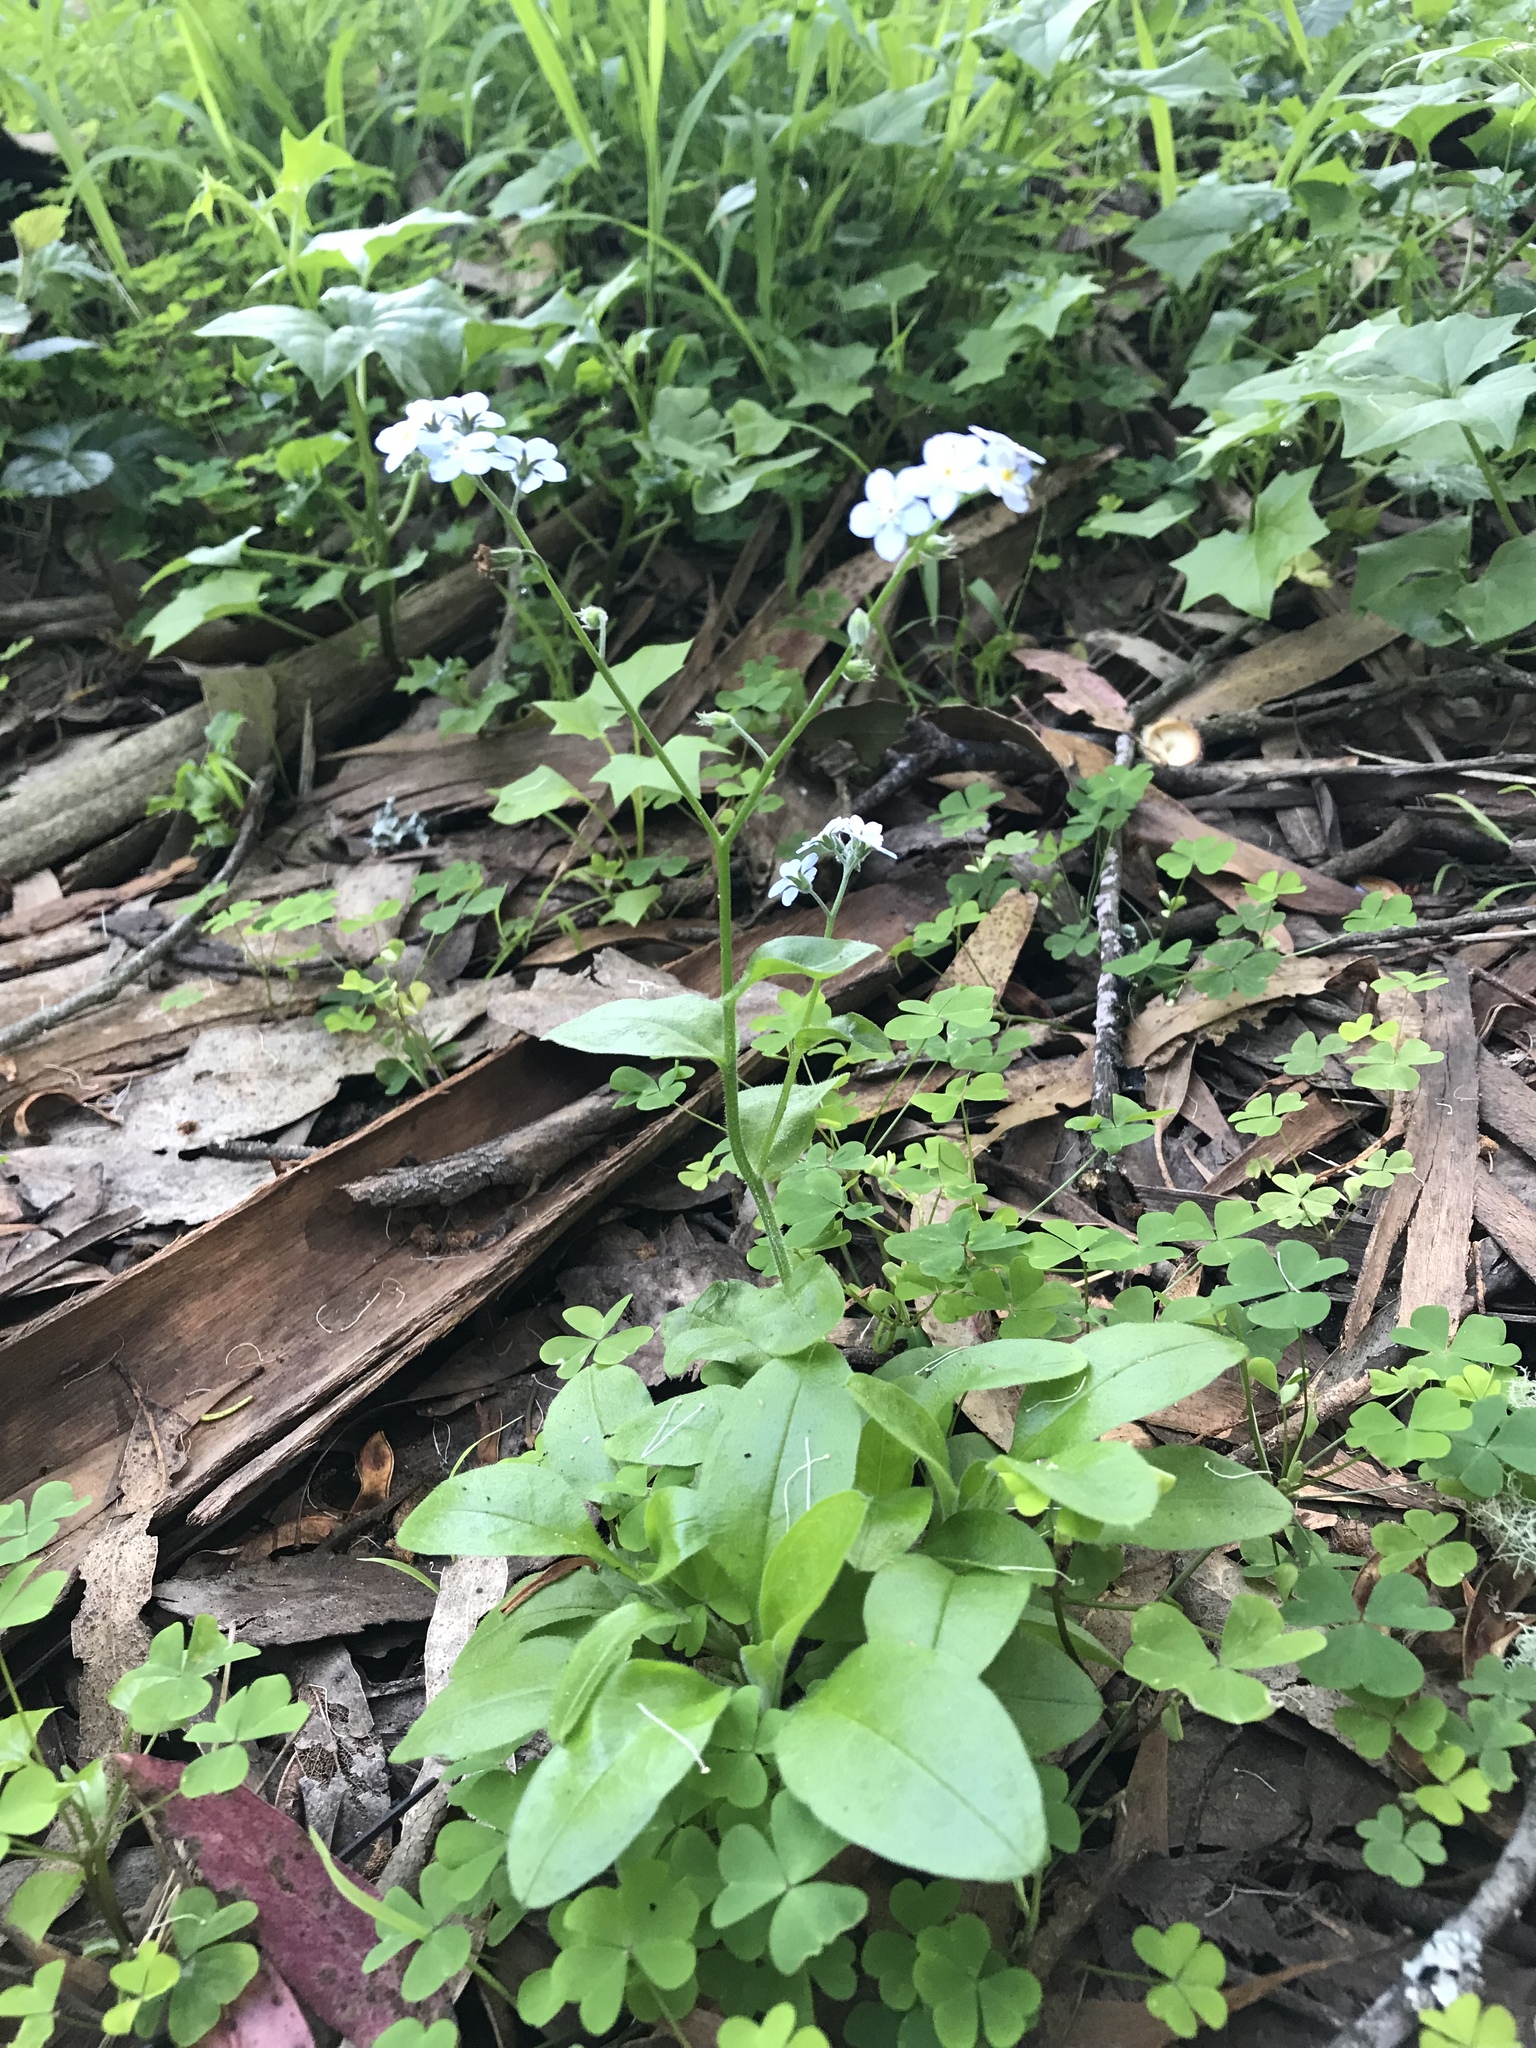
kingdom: Plantae
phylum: Tracheophyta
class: Magnoliopsida
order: Boraginales
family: Boraginaceae
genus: Myosotis
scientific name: Myosotis latifolia
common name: Broadleaf forget-me-not
